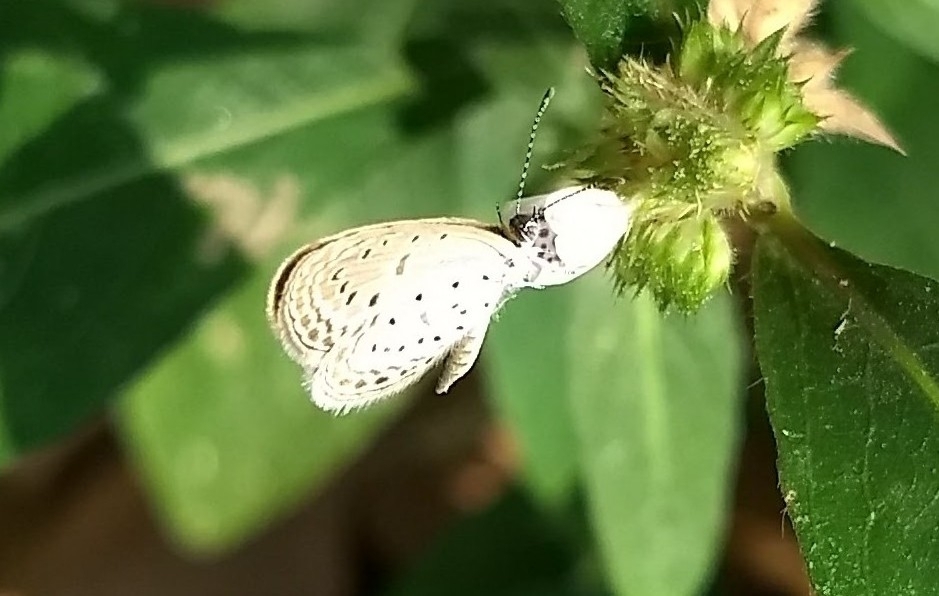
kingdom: Animalia
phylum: Arthropoda
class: Insecta
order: Lepidoptera
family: Lycaenidae
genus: Zizula
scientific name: Zizula hylax
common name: Gaika blue
